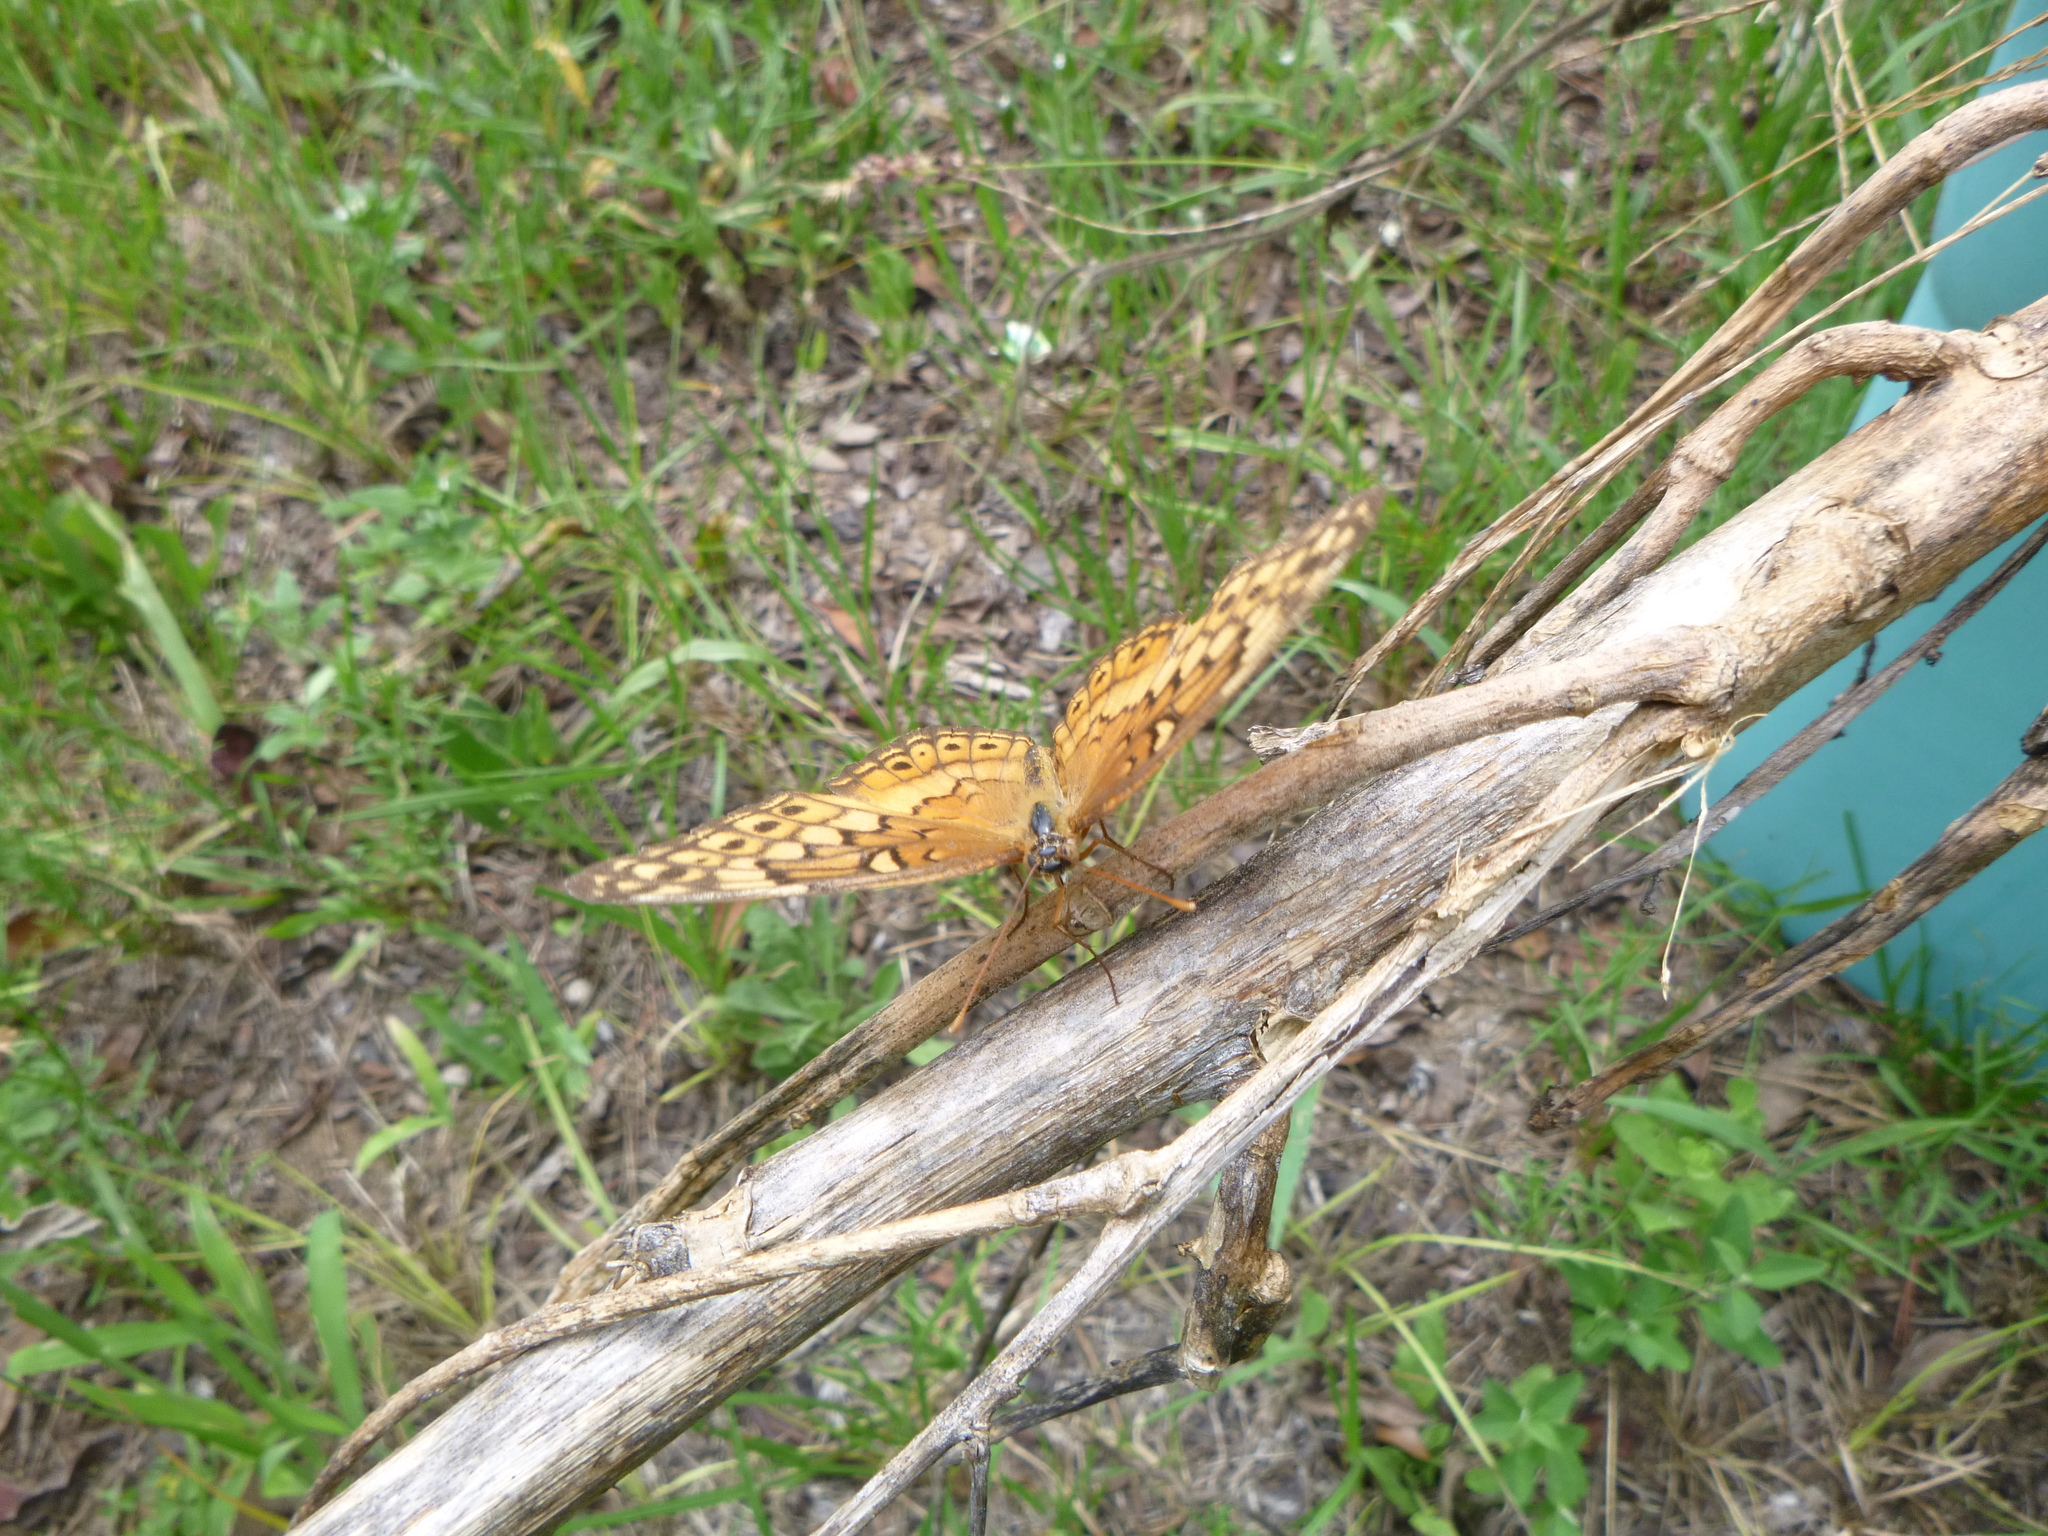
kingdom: Animalia
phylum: Arthropoda
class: Insecta
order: Lepidoptera
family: Nymphalidae
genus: Euptoieta
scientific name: Euptoieta claudia
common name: Variegated fritillary
